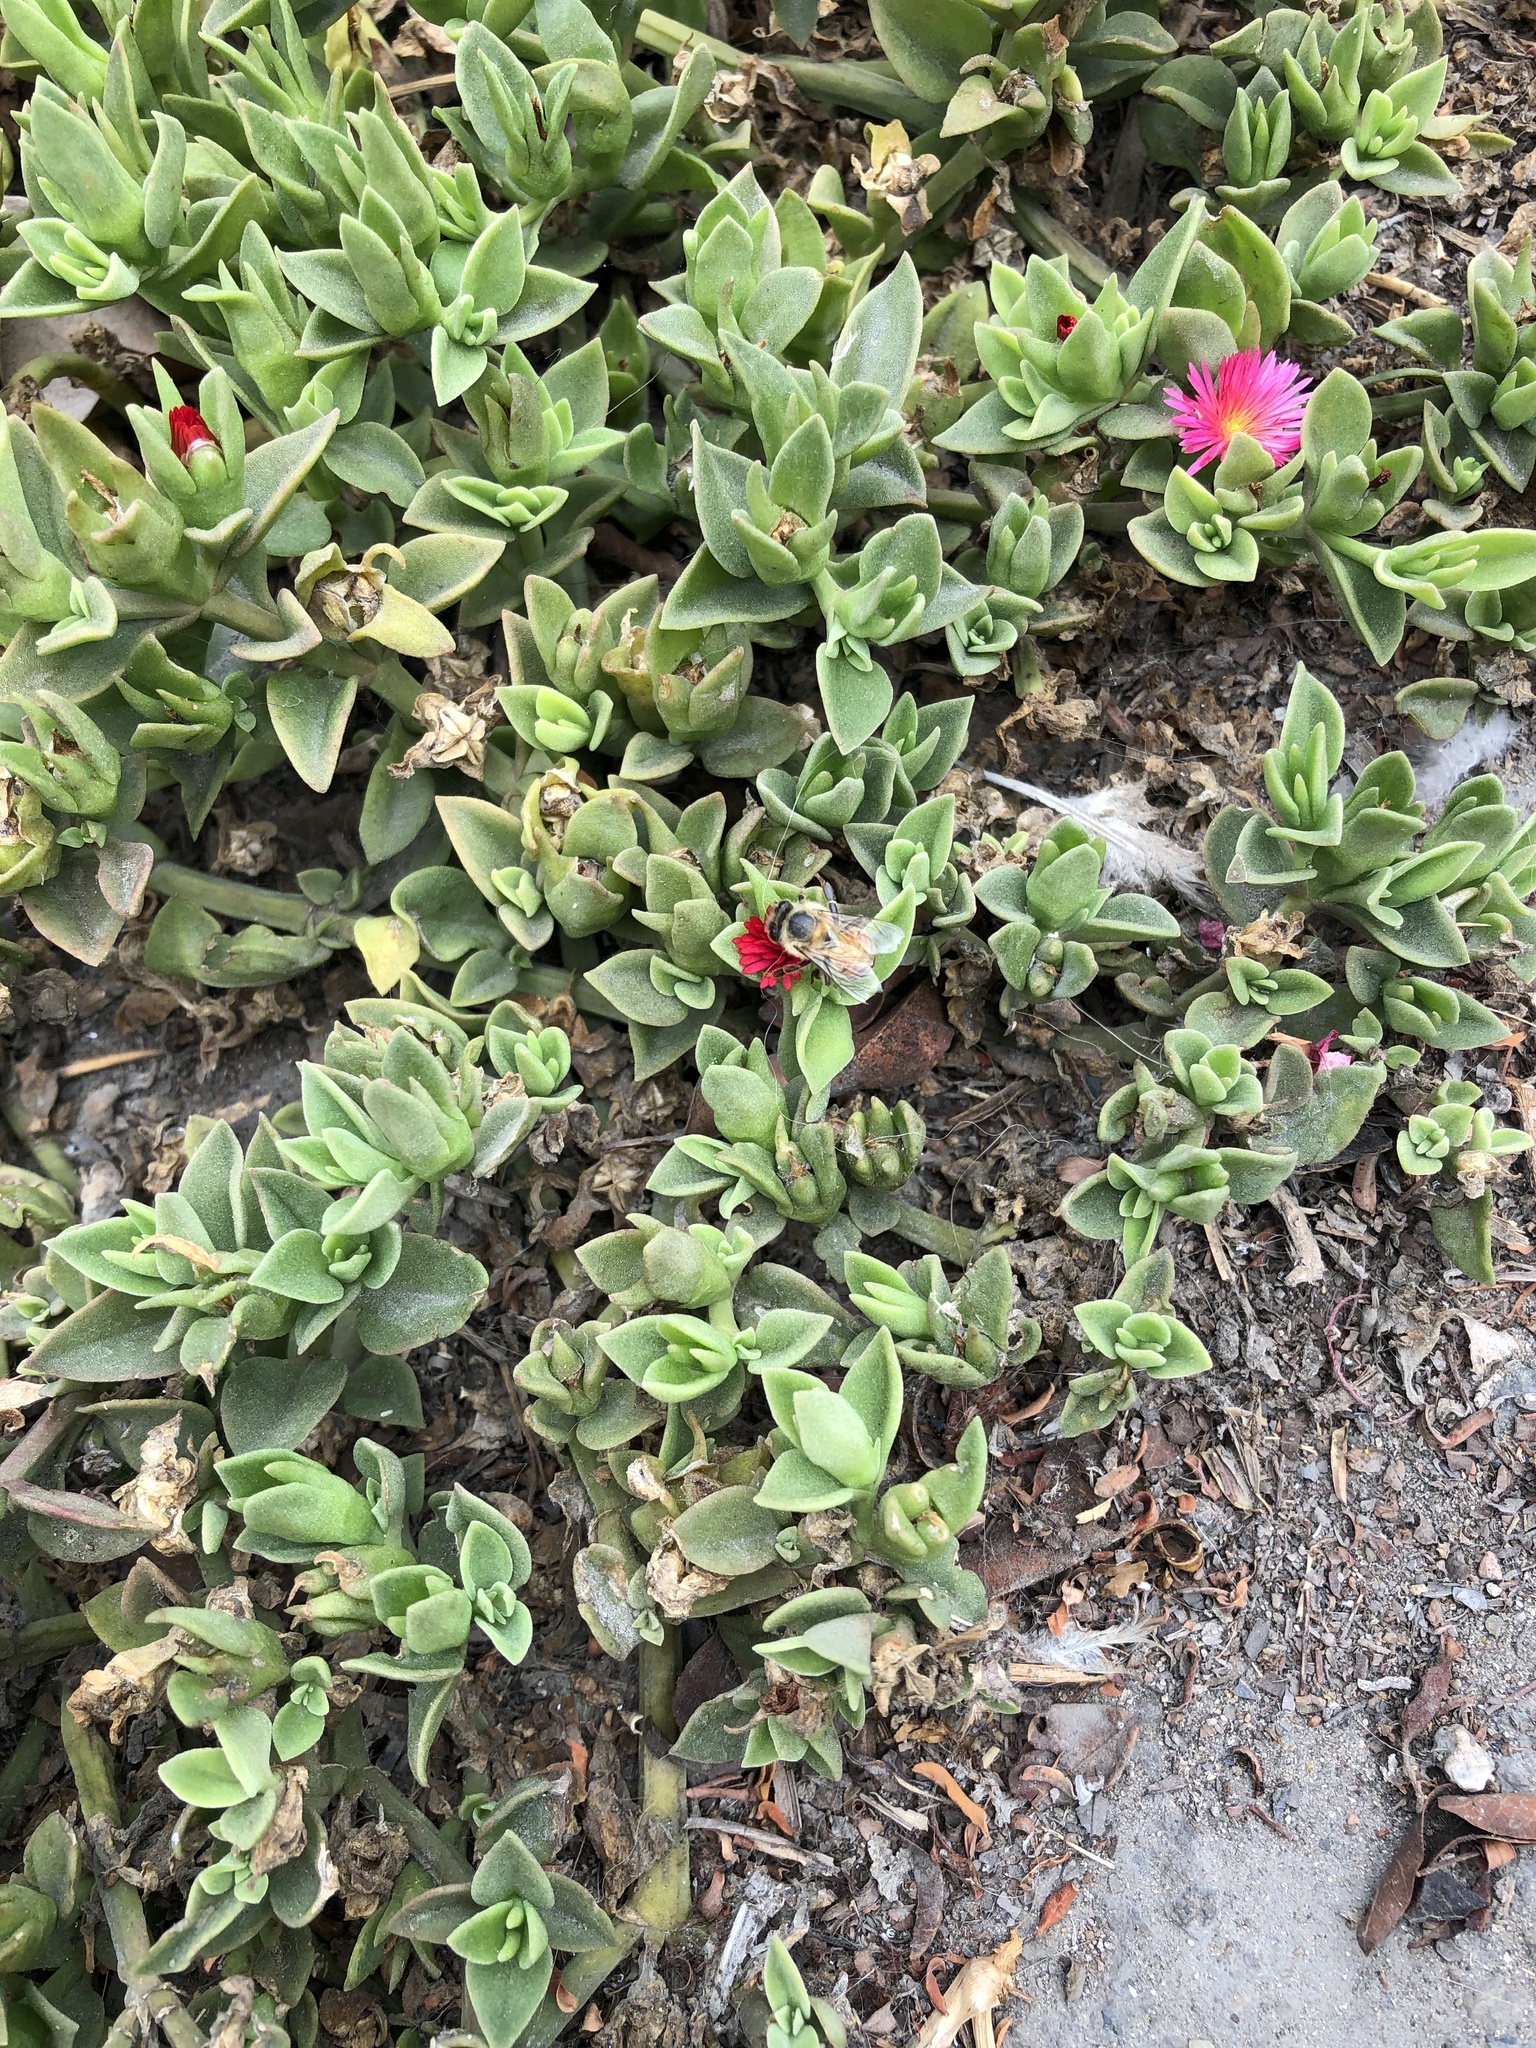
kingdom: Plantae
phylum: Tracheophyta
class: Magnoliopsida
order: Caryophyllales
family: Aizoaceae
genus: Mesembryanthemum
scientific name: Mesembryanthemum cordifolium
